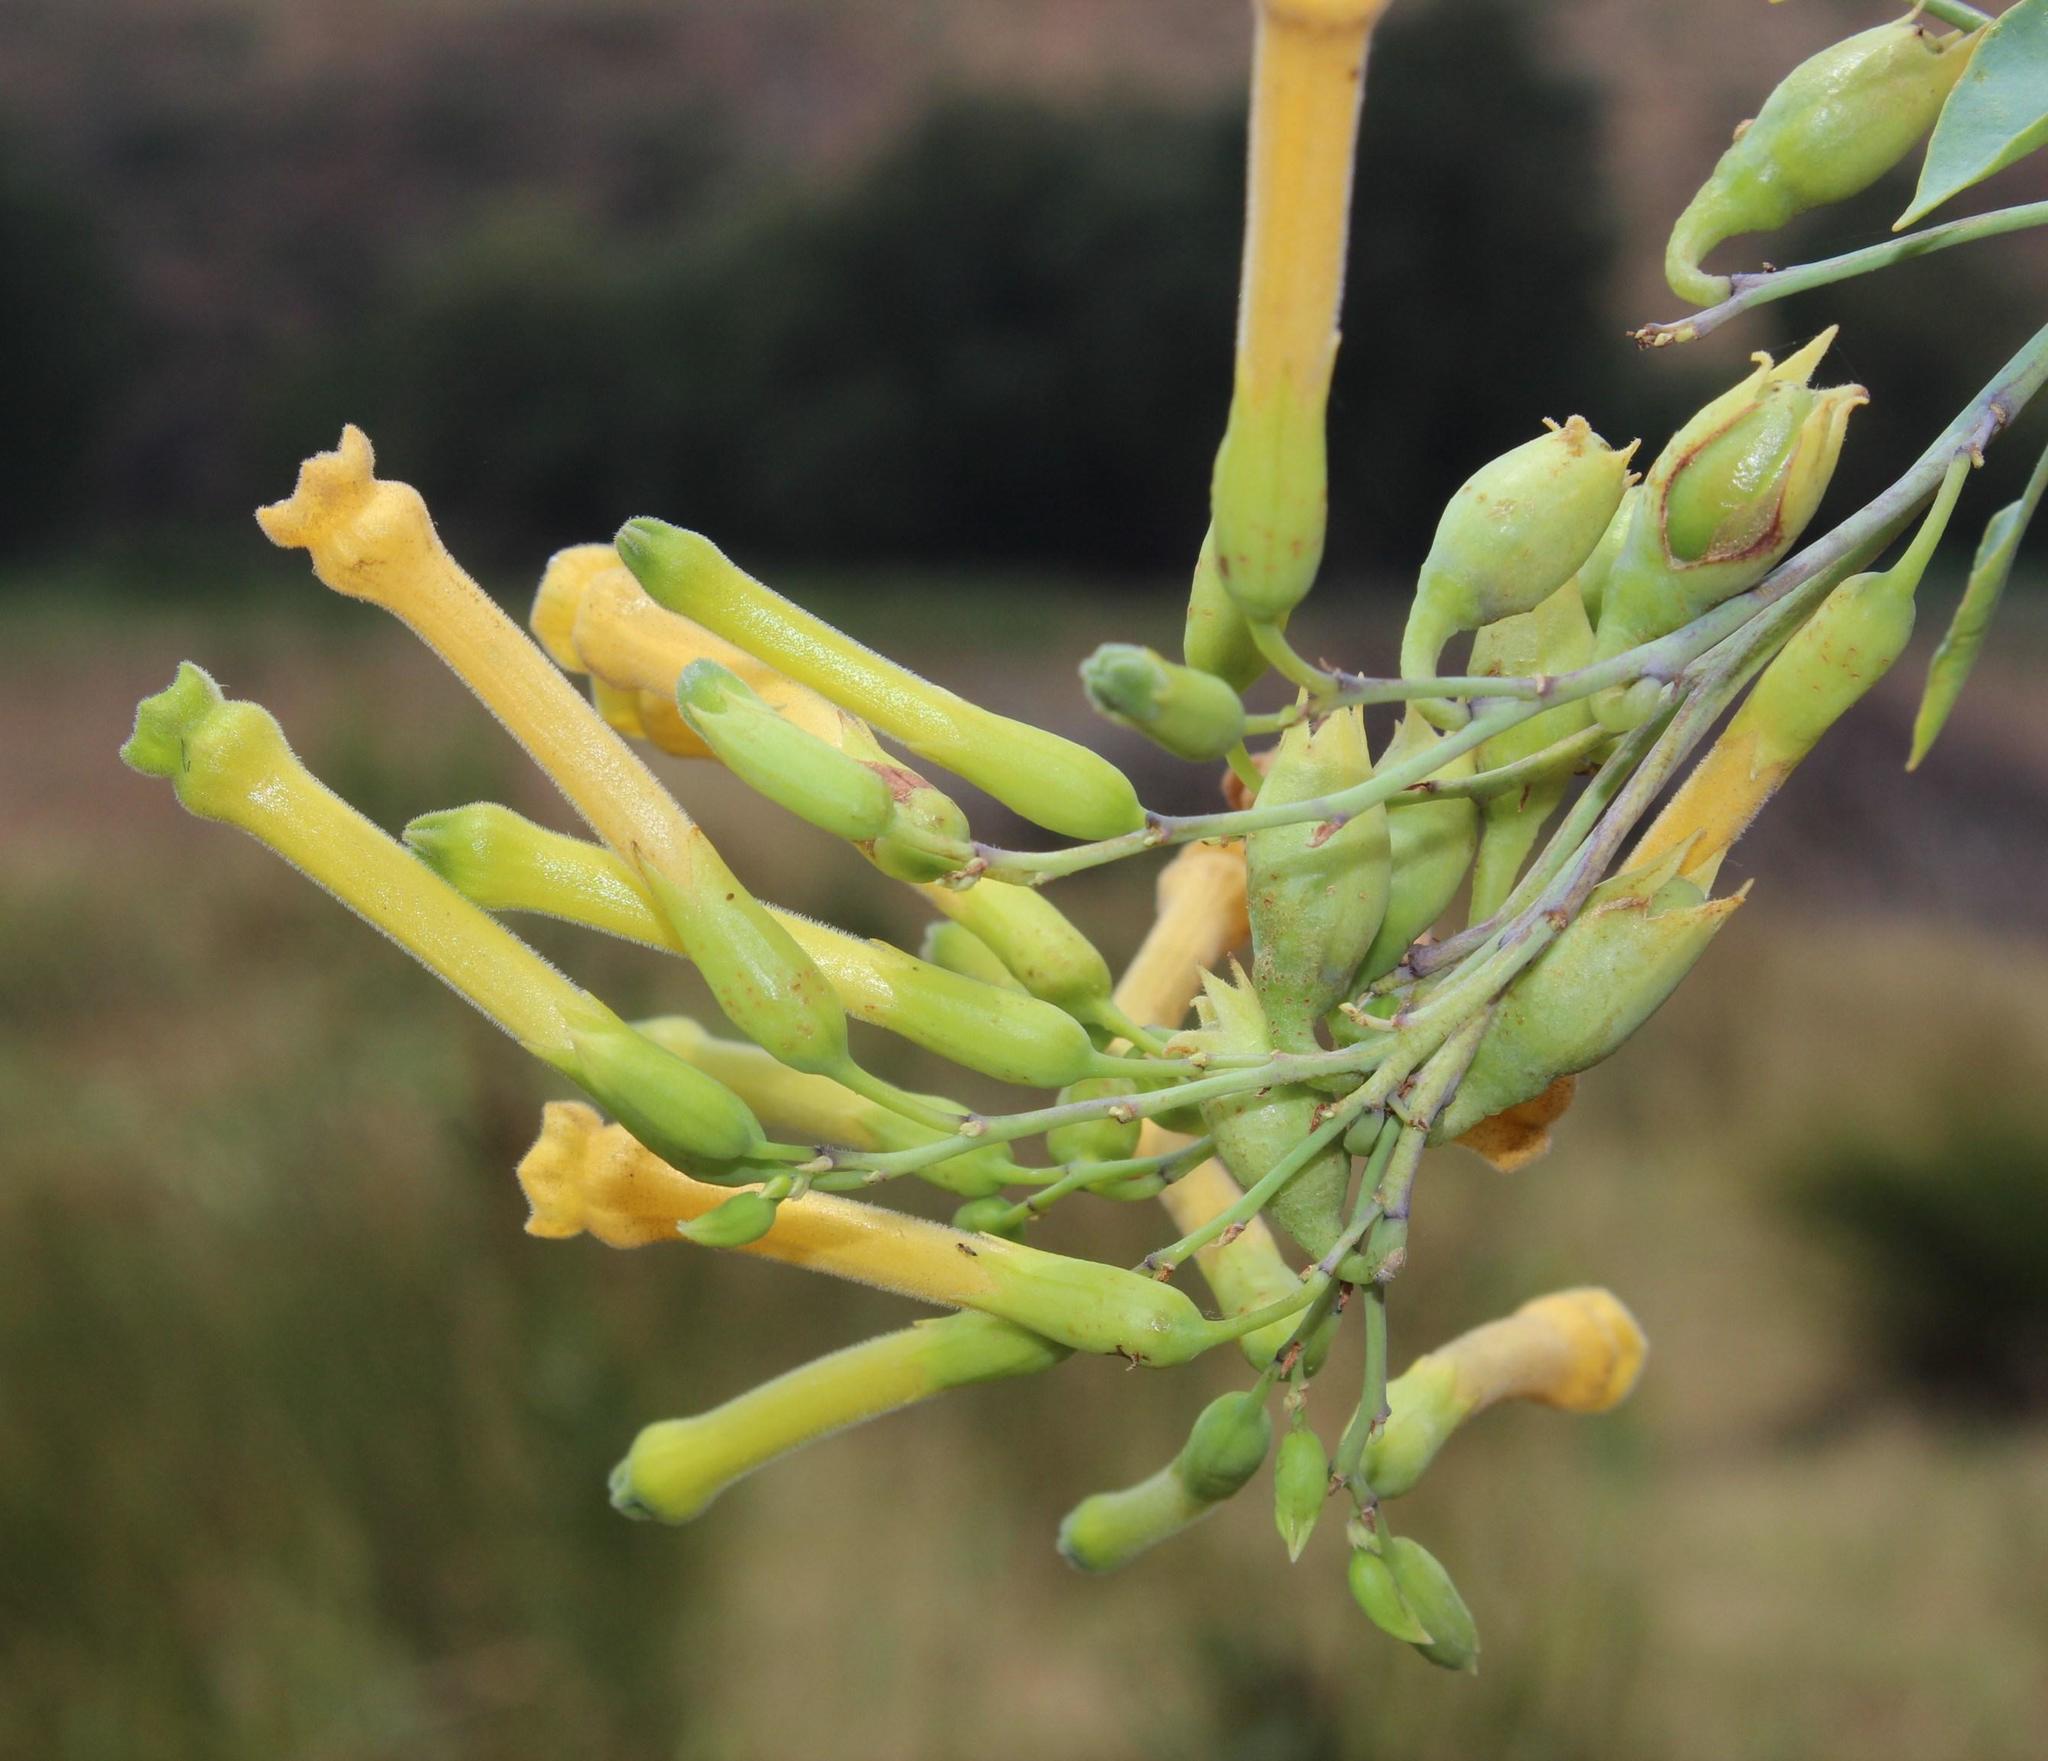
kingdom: Plantae
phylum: Tracheophyta
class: Magnoliopsida
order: Solanales
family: Solanaceae
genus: Nicotiana
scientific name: Nicotiana glauca
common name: Tree tobacco
